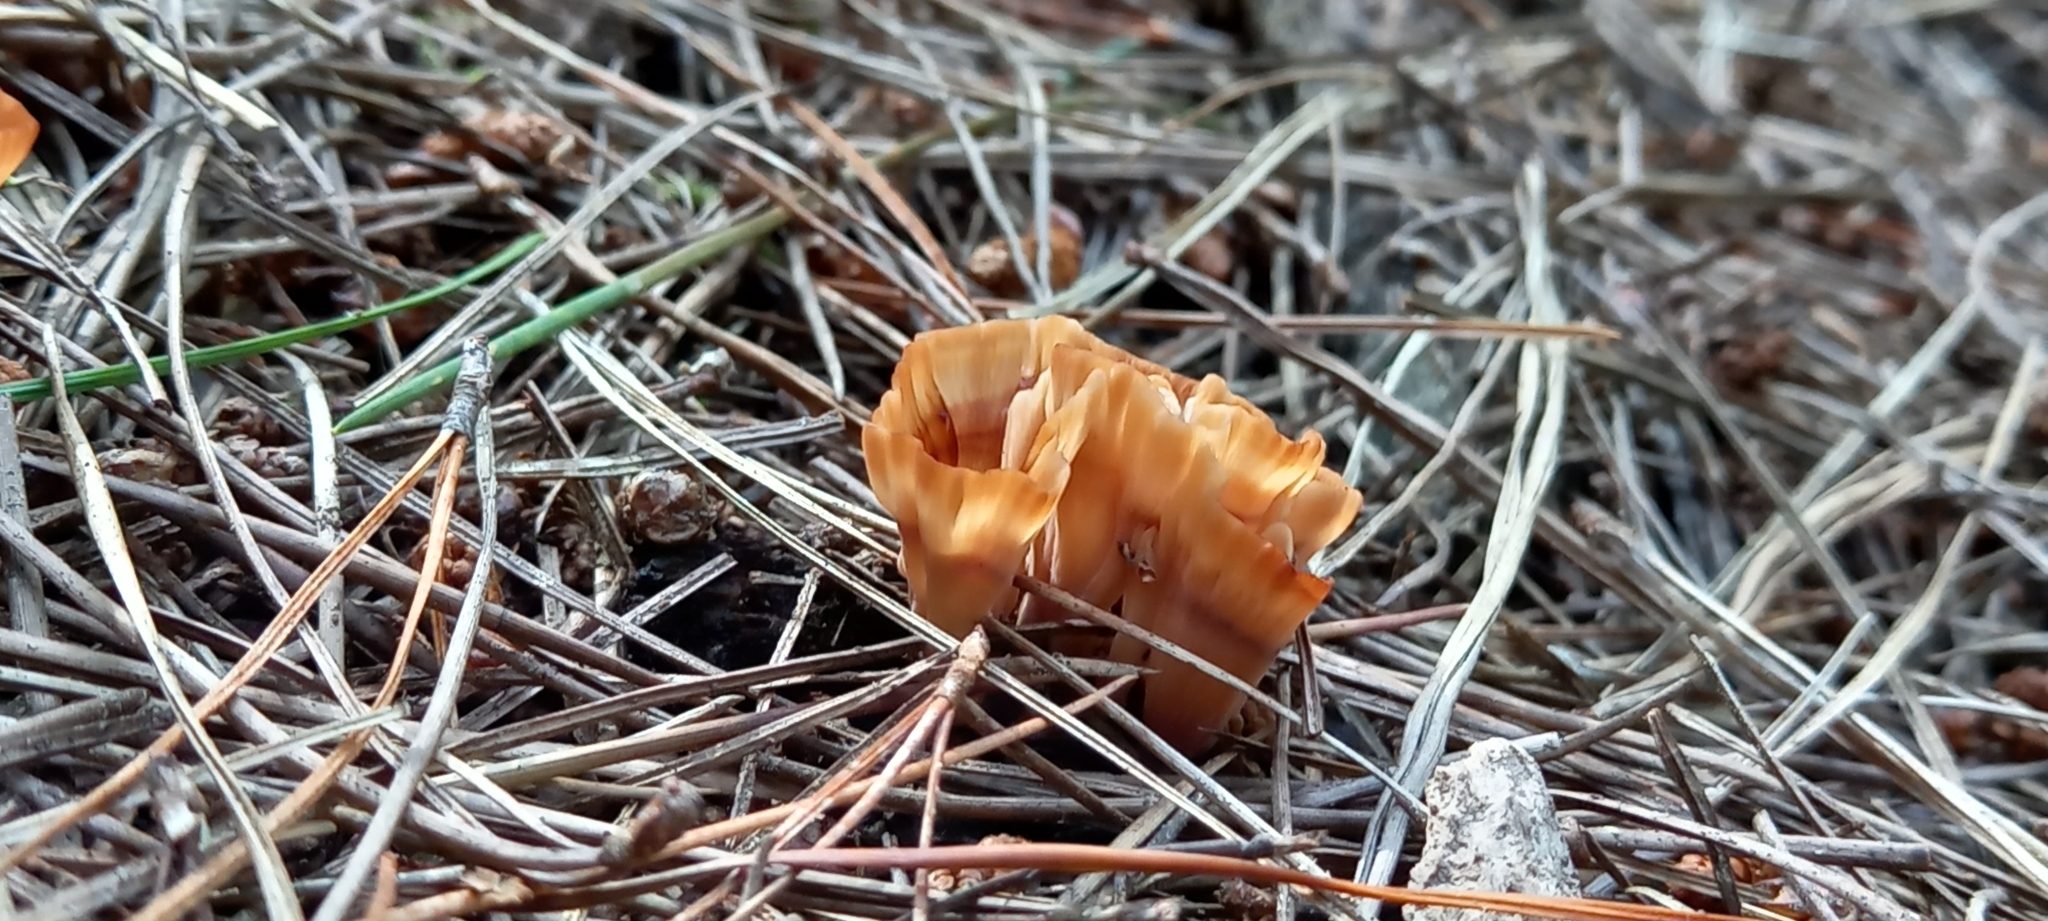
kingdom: Fungi
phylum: Basidiomycota
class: Agaricomycetes
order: Polyporales
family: Podoscyphaceae
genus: Podoscypha
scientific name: Podoscypha petalodes
